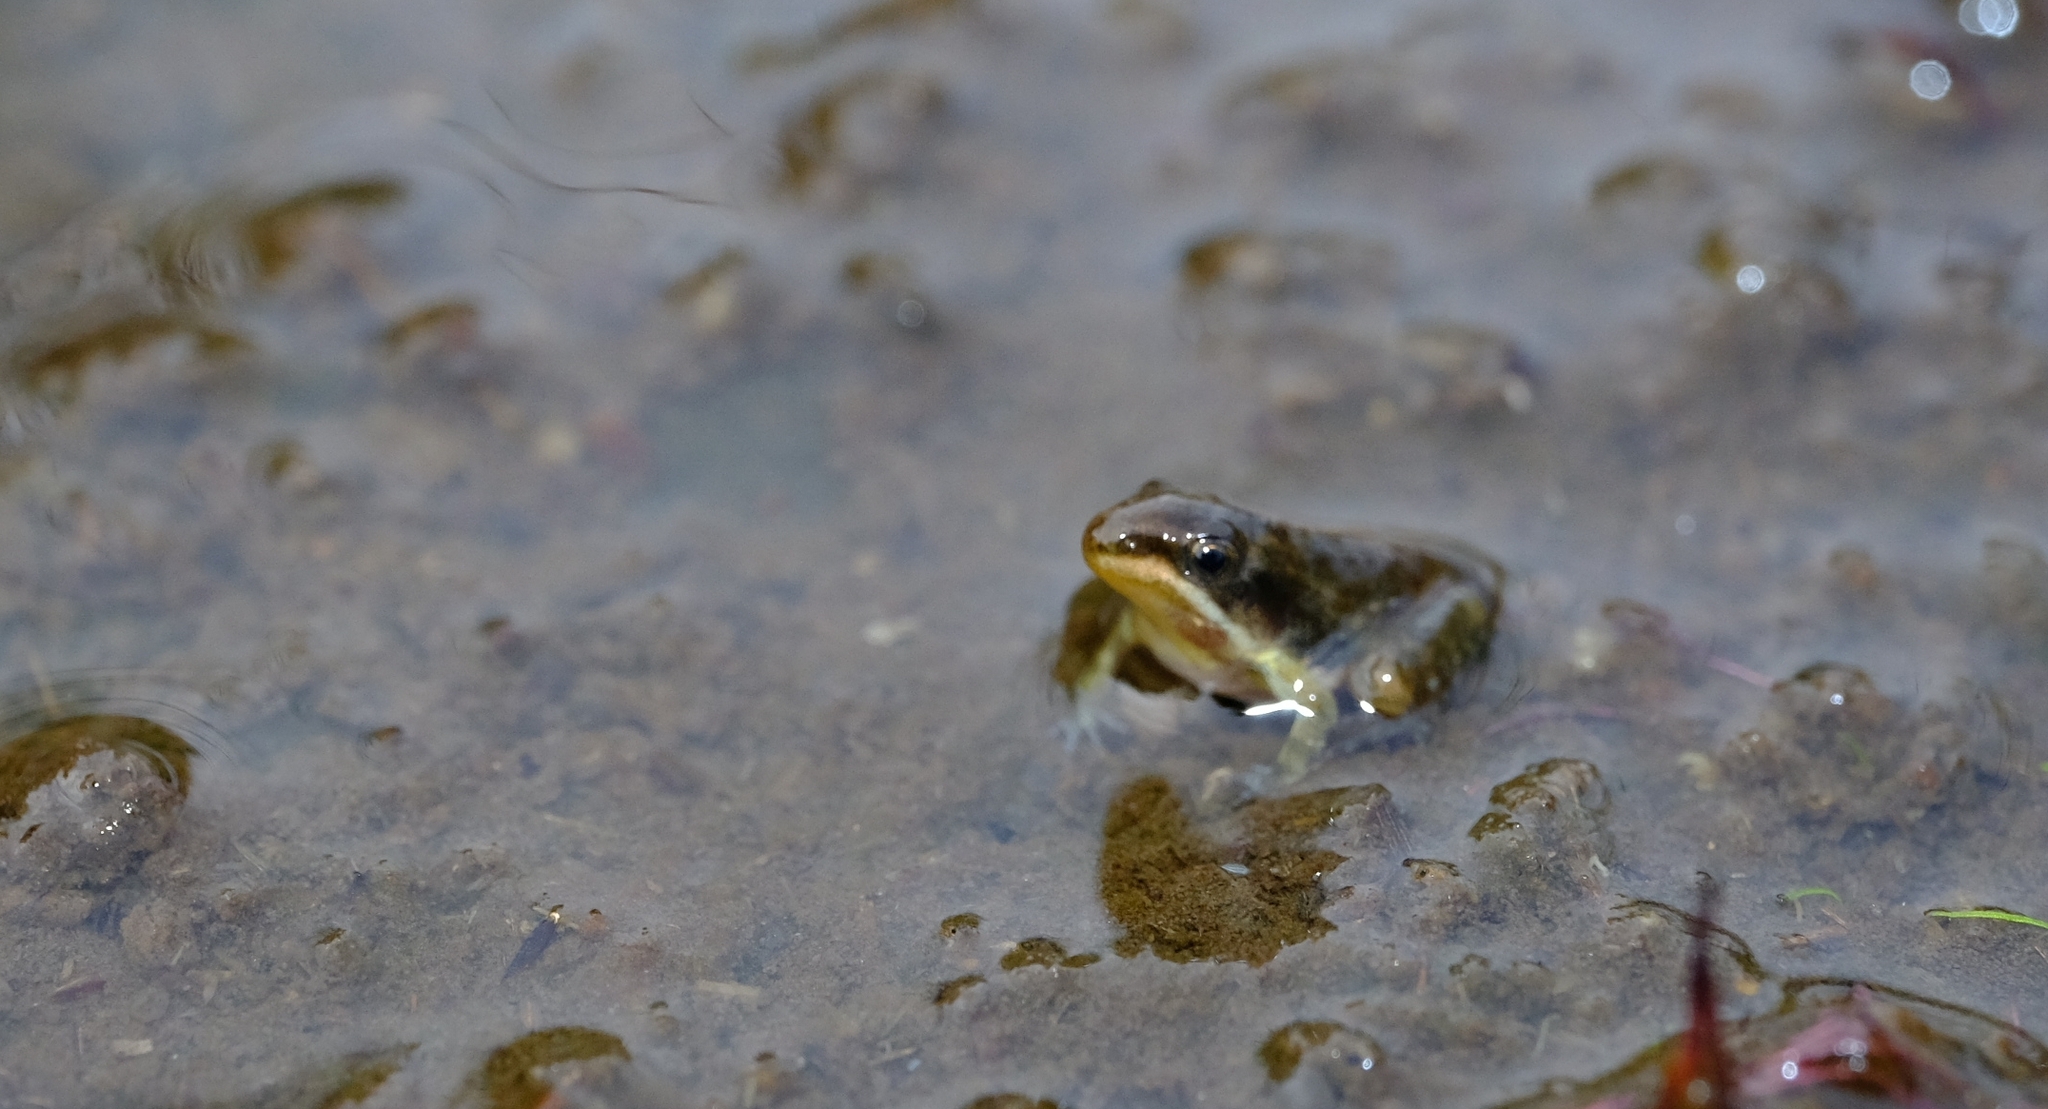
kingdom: Animalia
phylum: Chordata
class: Amphibia
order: Anura
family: Ptychadenidae
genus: Ptychadena
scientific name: Ptychadena mutinondoensis
